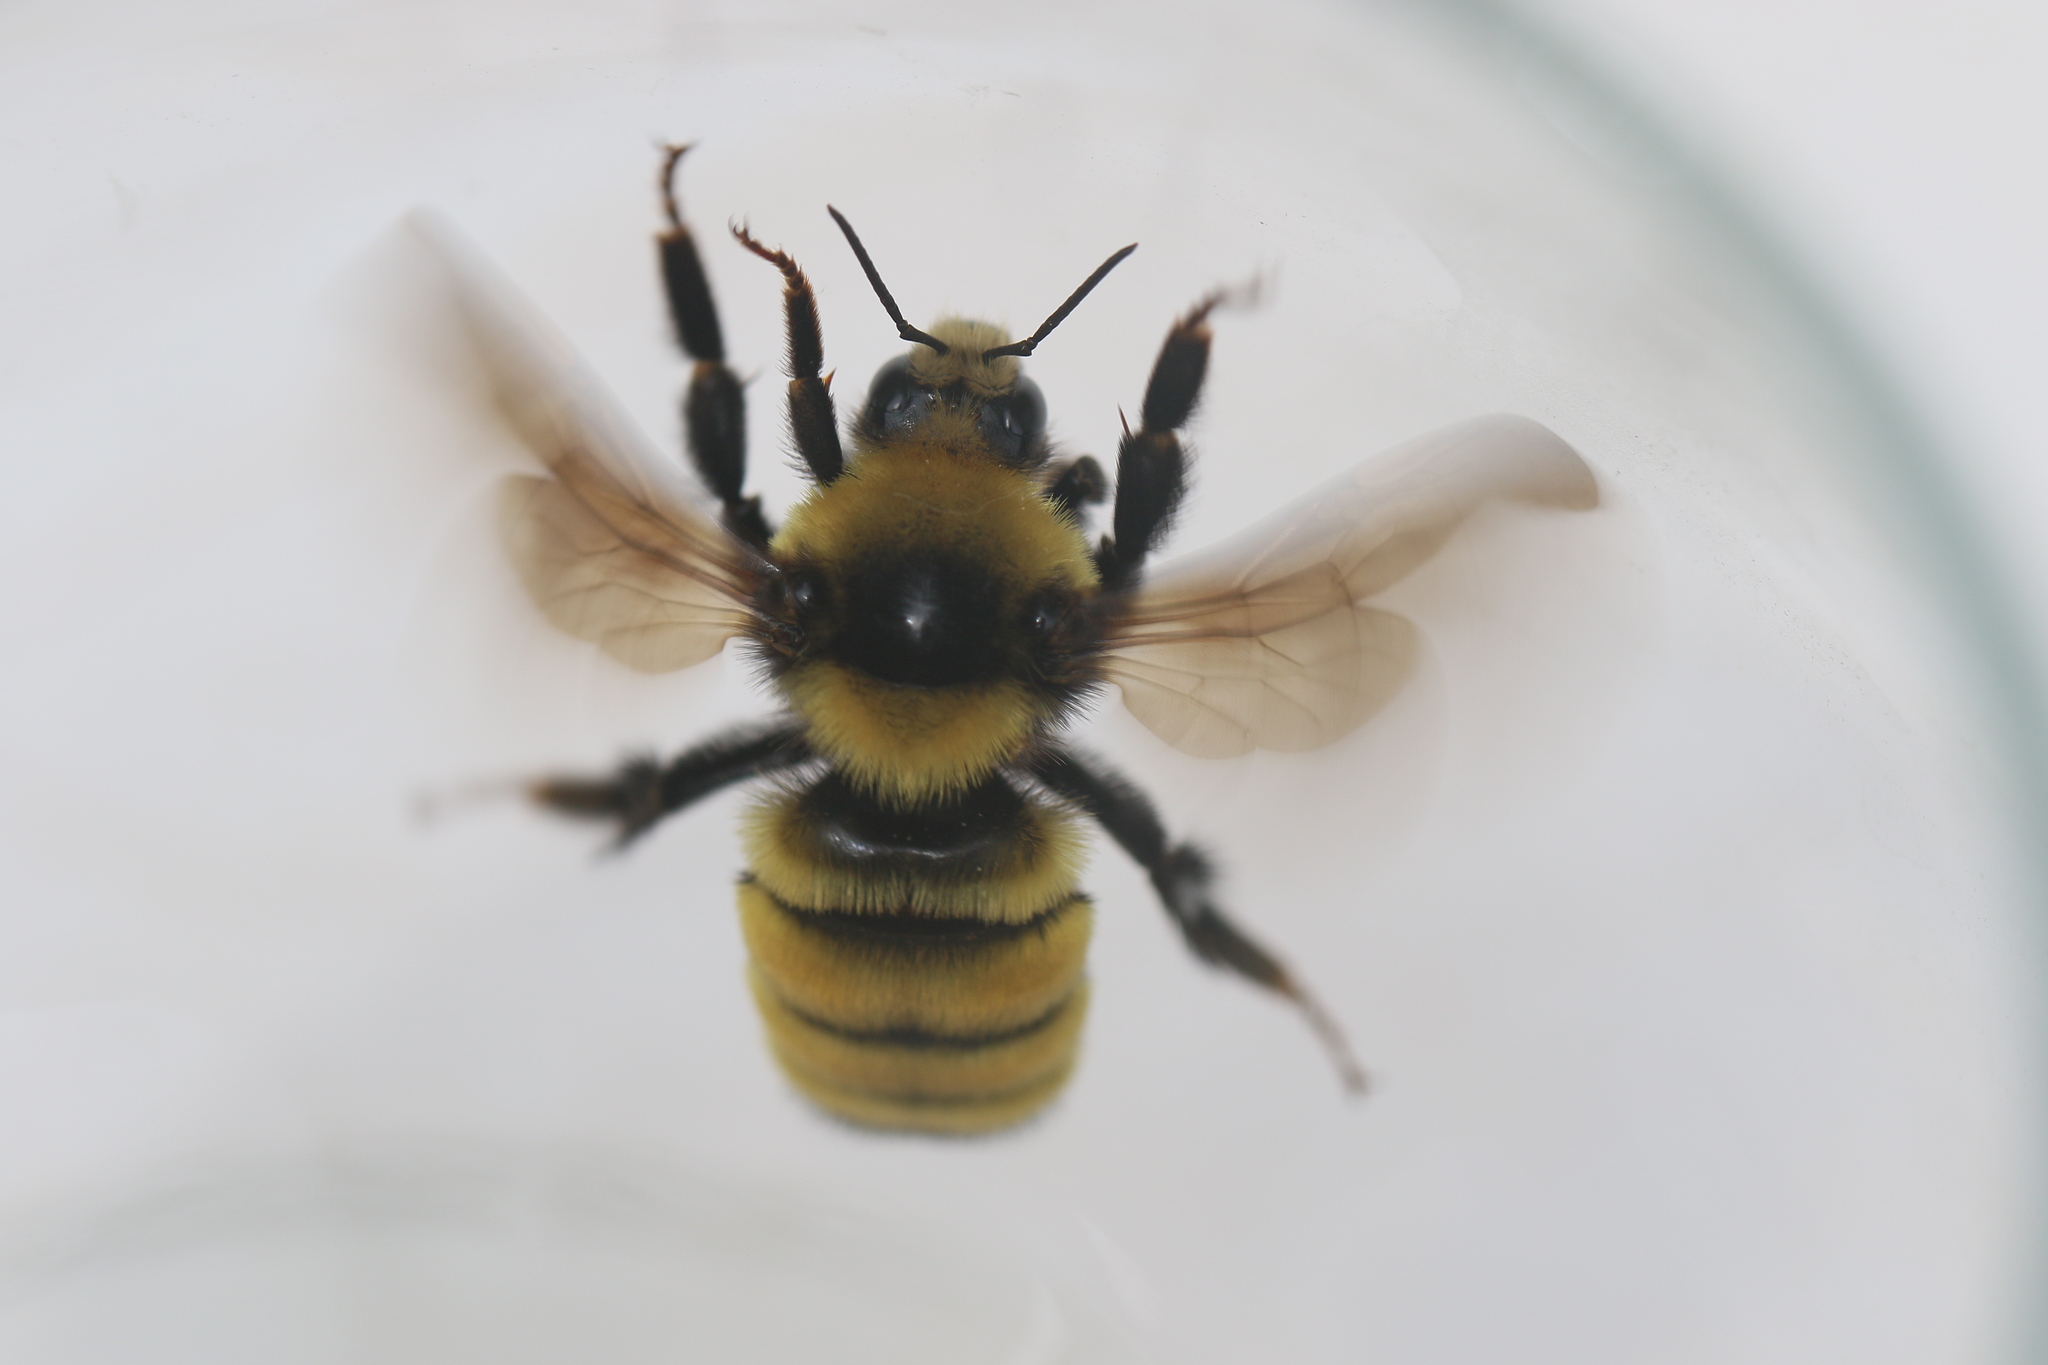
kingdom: Animalia
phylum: Arthropoda
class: Insecta
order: Hymenoptera
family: Apidae
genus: Bombus
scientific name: Bombus borealis
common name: Northern amber bumble bee
